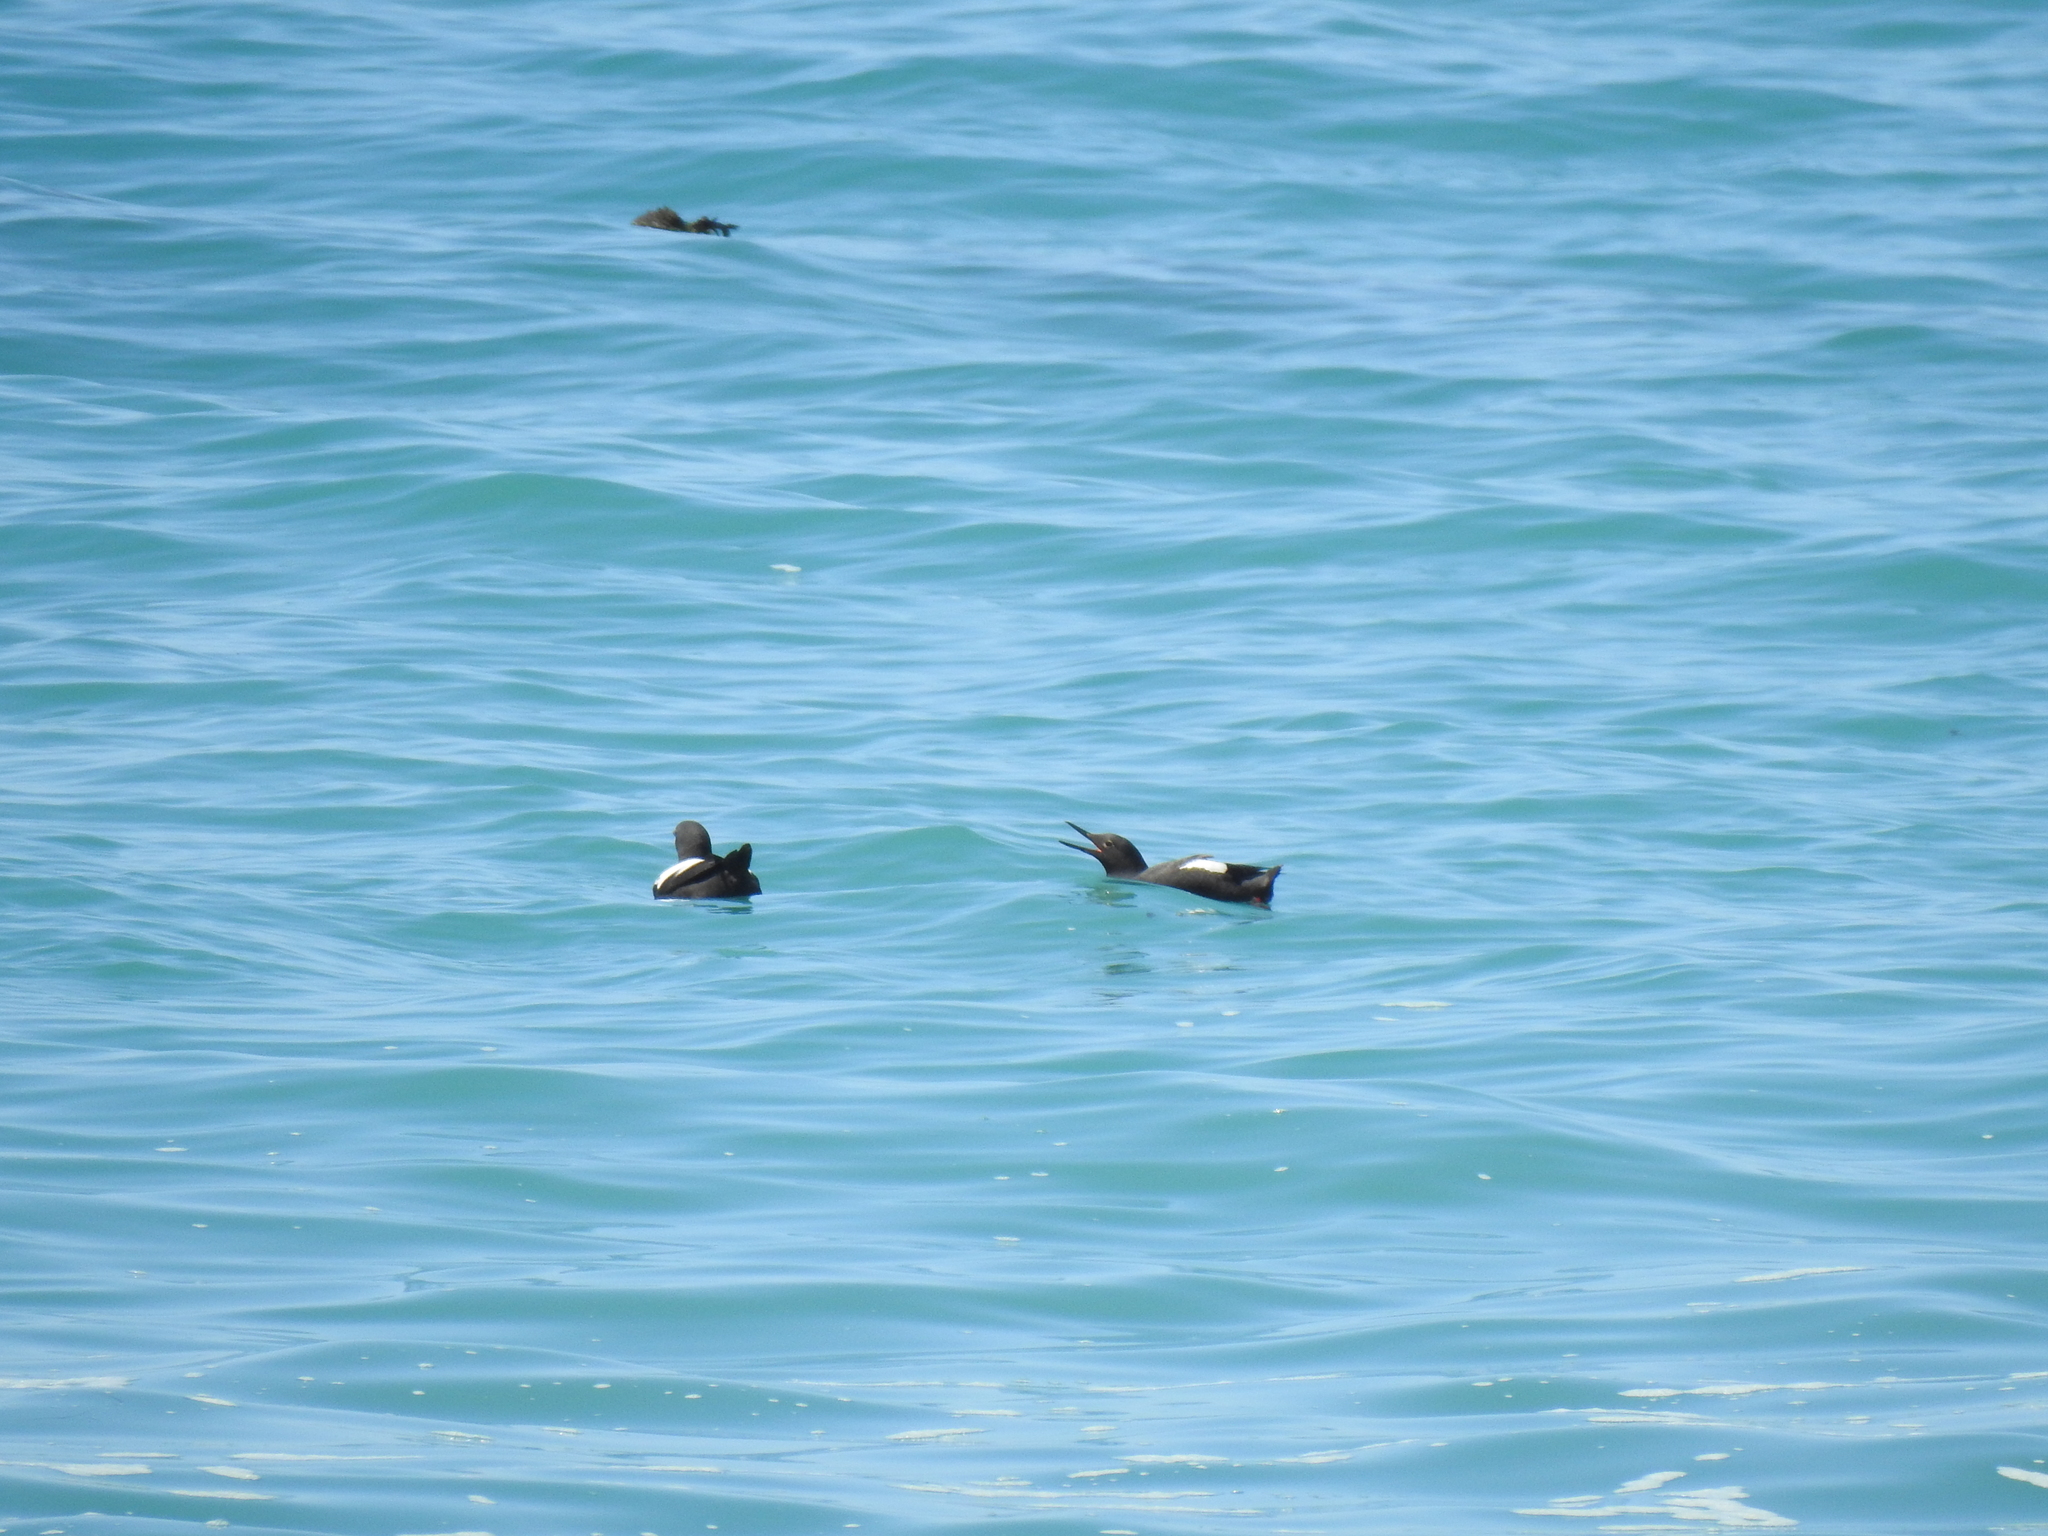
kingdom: Animalia
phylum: Chordata
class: Aves
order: Charadriiformes
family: Alcidae
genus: Cepphus
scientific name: Cepphus columba
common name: Pigeon guillemot
